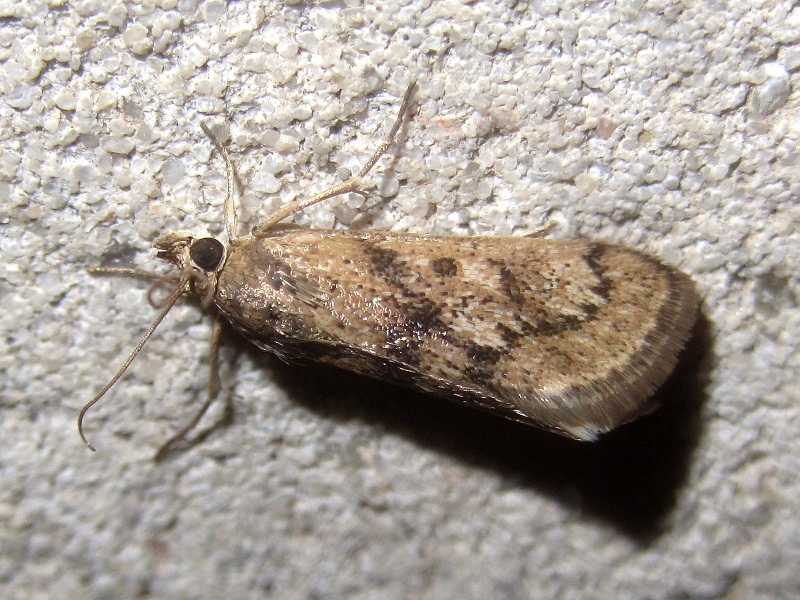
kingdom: Animalia
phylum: Arthropoda
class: Insecta
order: Lepidoptera
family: Crambidae
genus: Tegostoma
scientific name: Tegostoma comparalis
